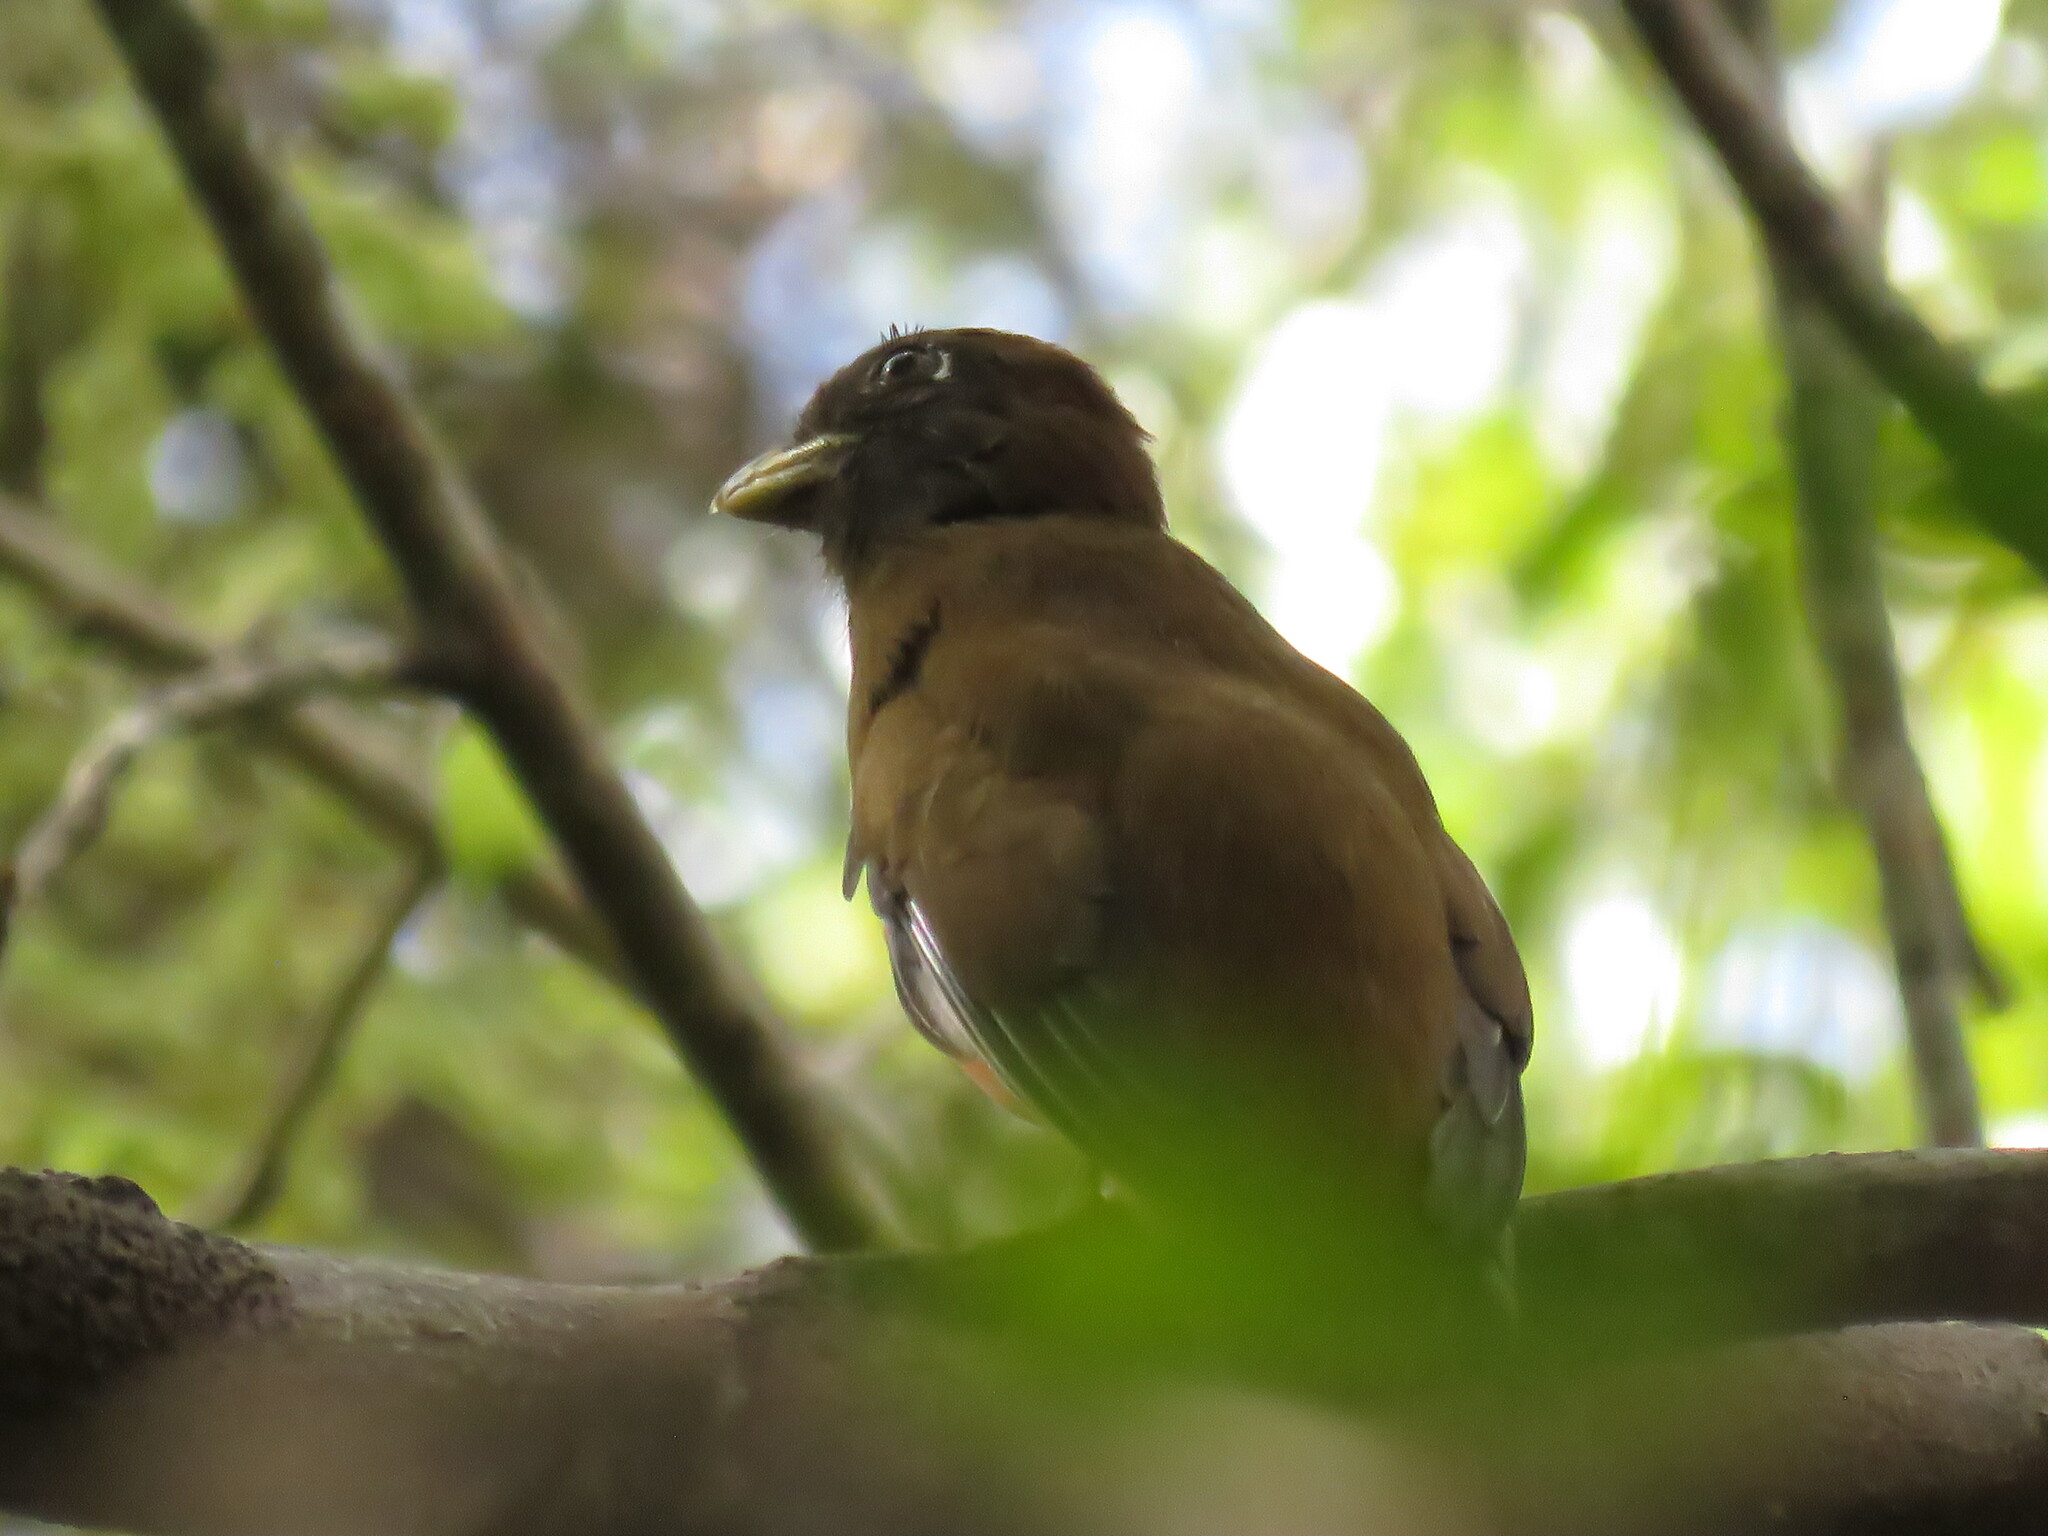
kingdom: Animalia
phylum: Chordata
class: Aves
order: Trogoniformes
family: Trogonidae
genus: Trogon
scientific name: Trogon collaris
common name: Collared trogon
